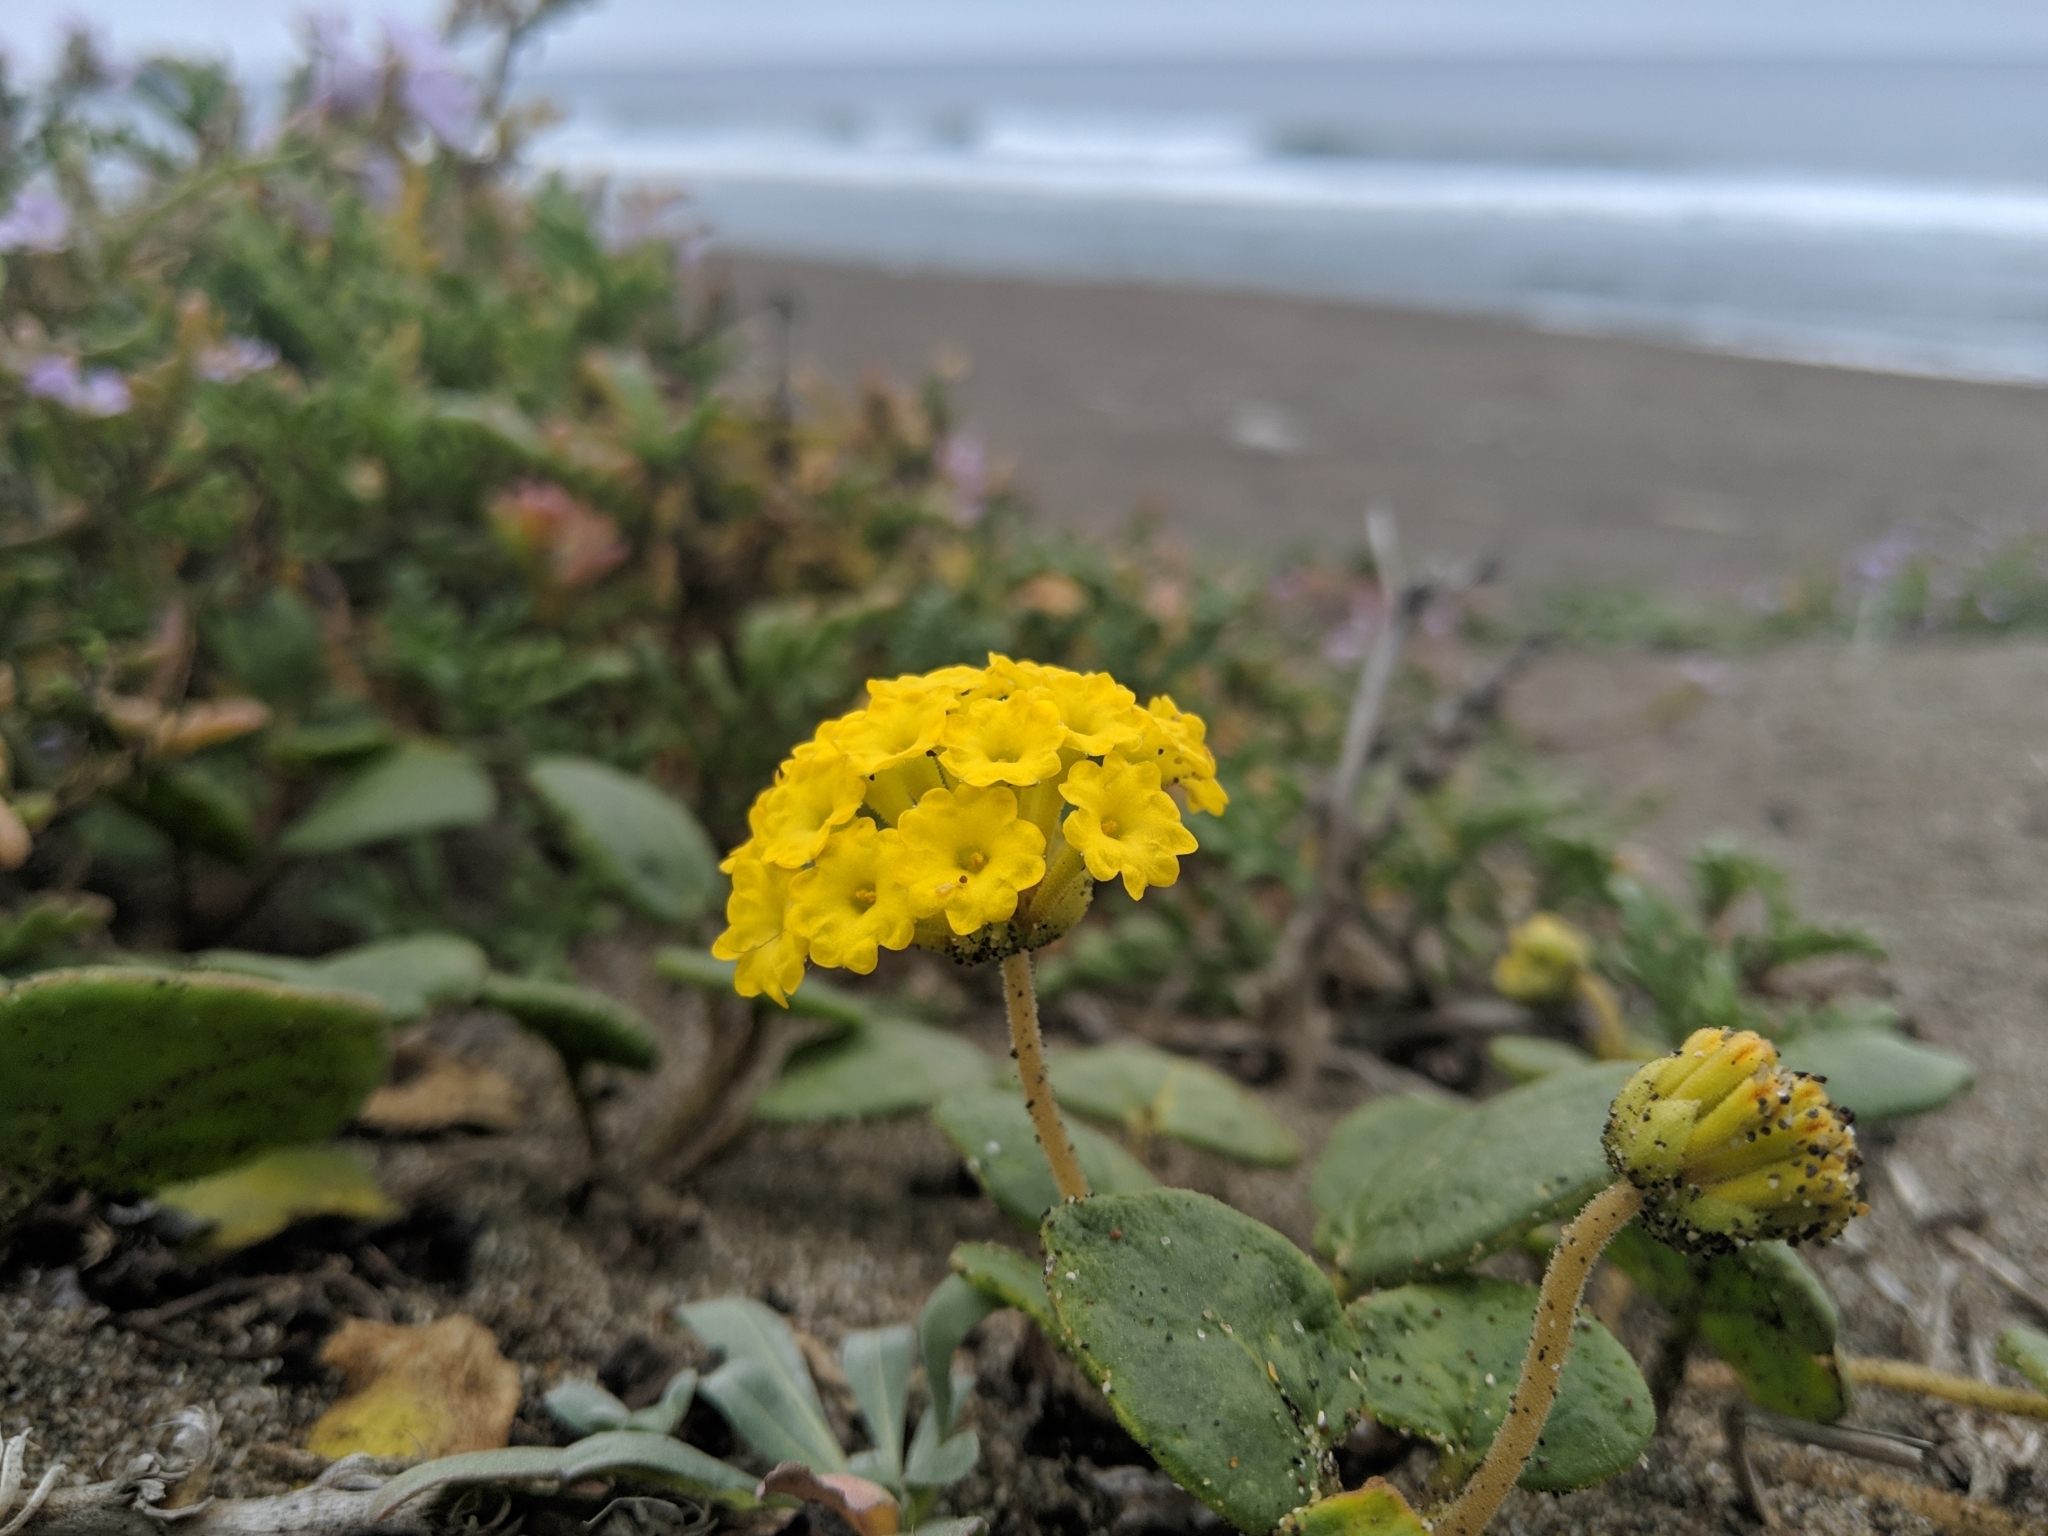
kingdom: Plantae
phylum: Tracheophyta
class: Magnoliopsida
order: Caryophyllales
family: Nyctaginaceae
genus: Abronia
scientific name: Abronia latifolia
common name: Yellow sand-verbena
